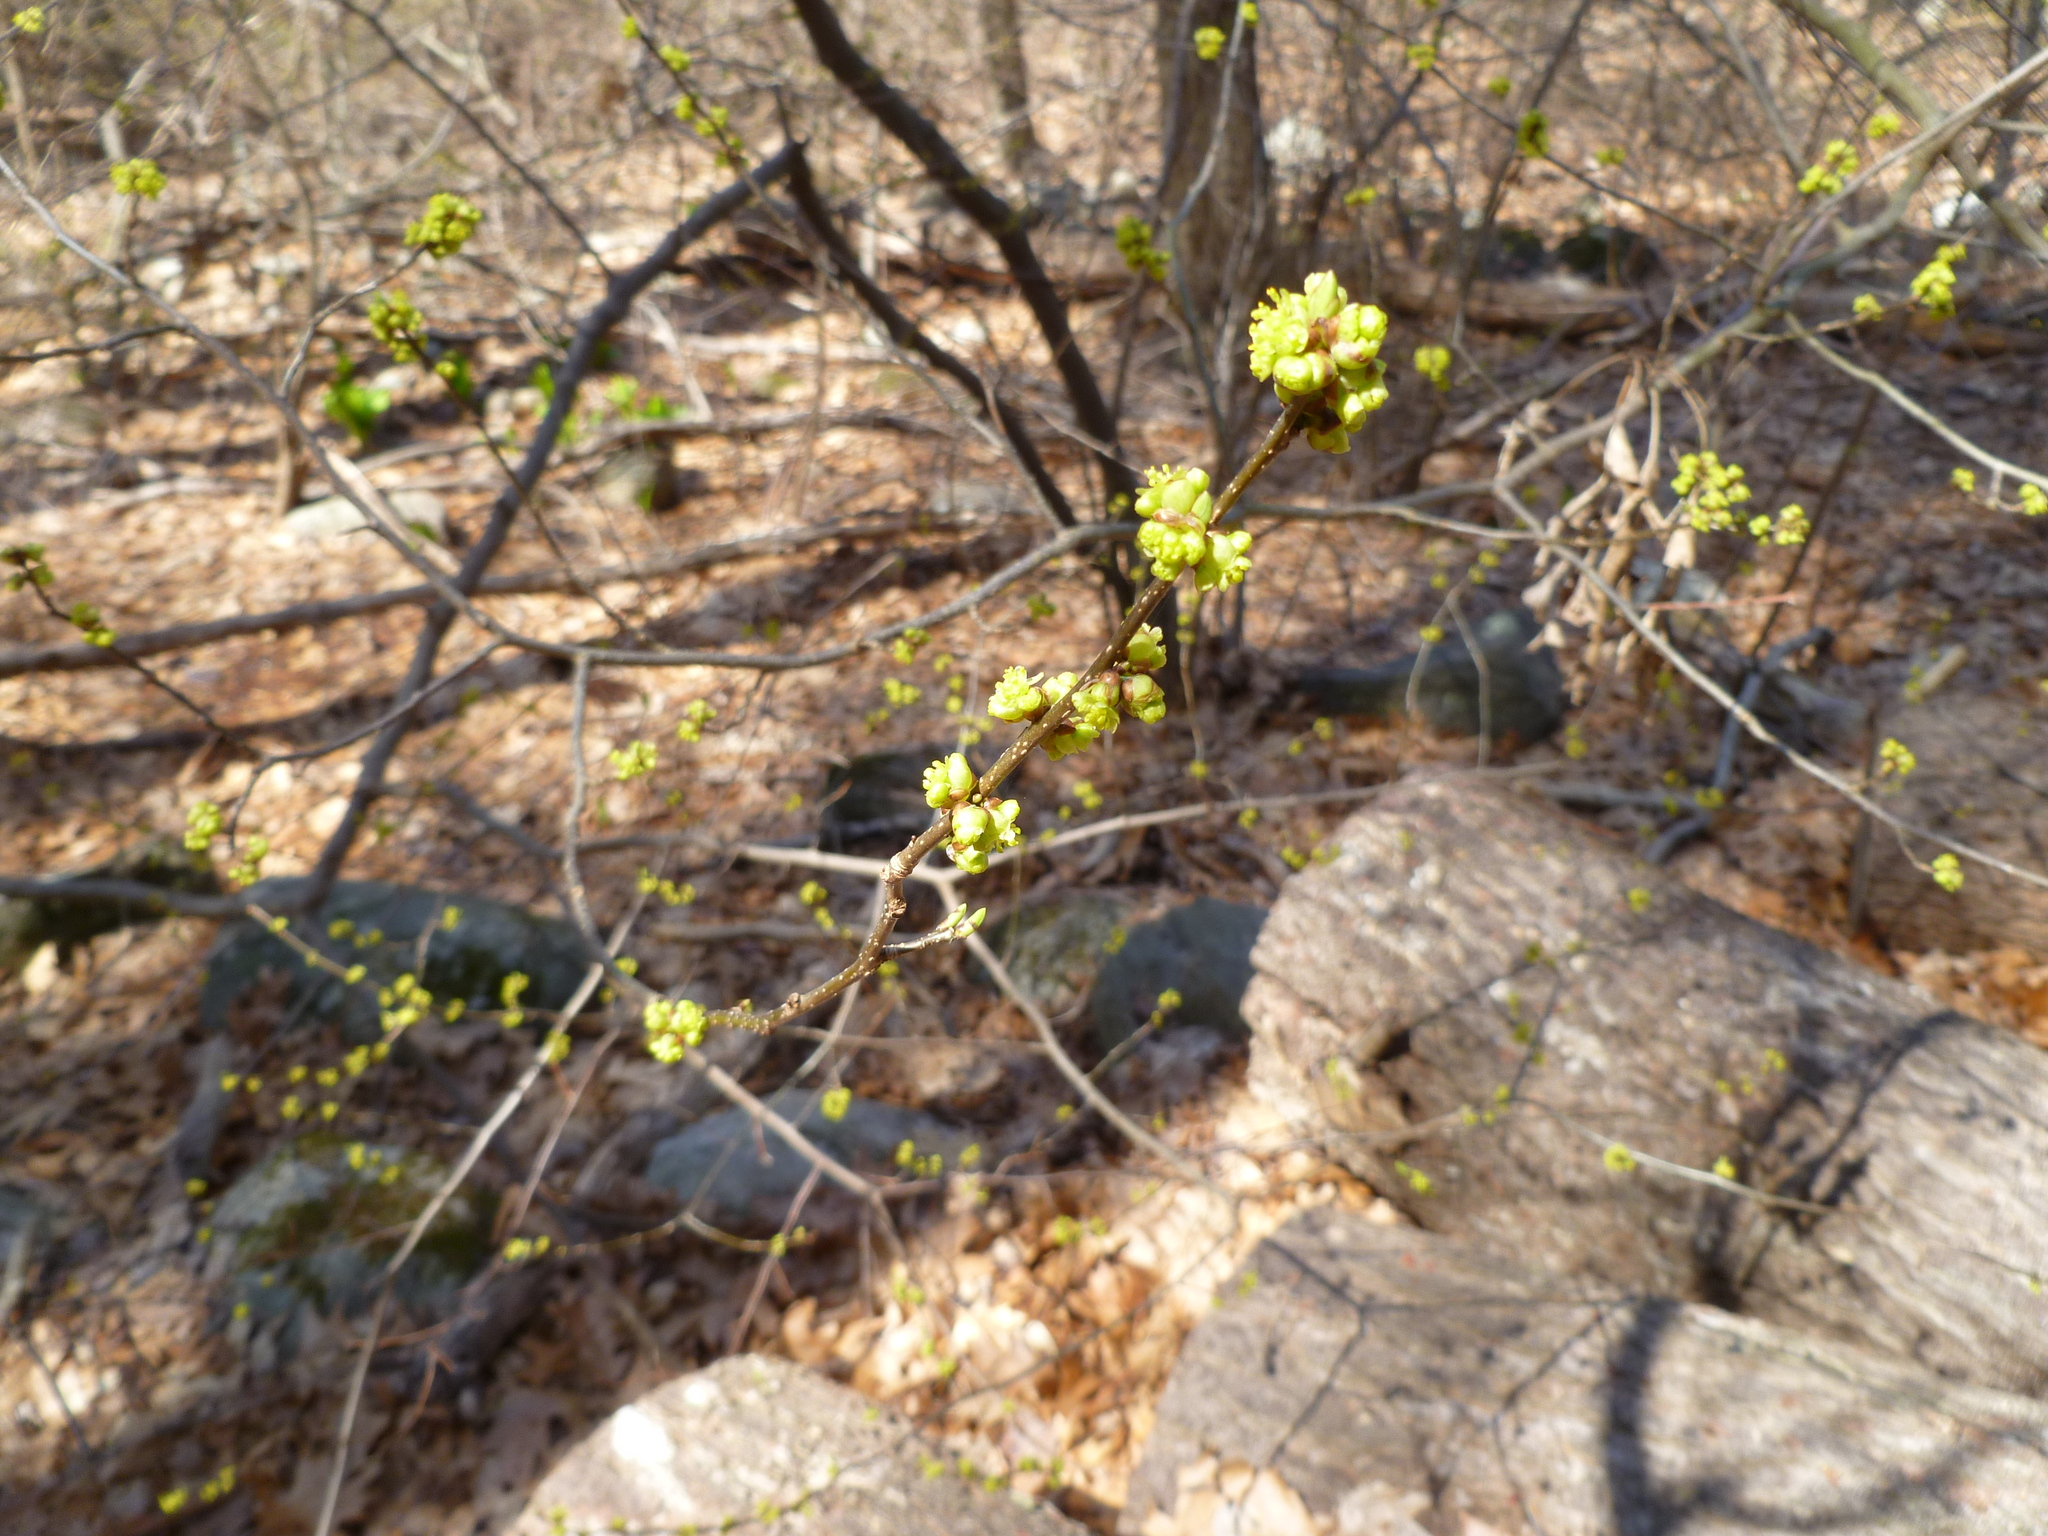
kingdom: Plantae
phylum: Tracheophyta
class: Magnoliopsida
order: Laurales
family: Lauraceae
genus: Lindera
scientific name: Lindera benzoin
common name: Spicebush
